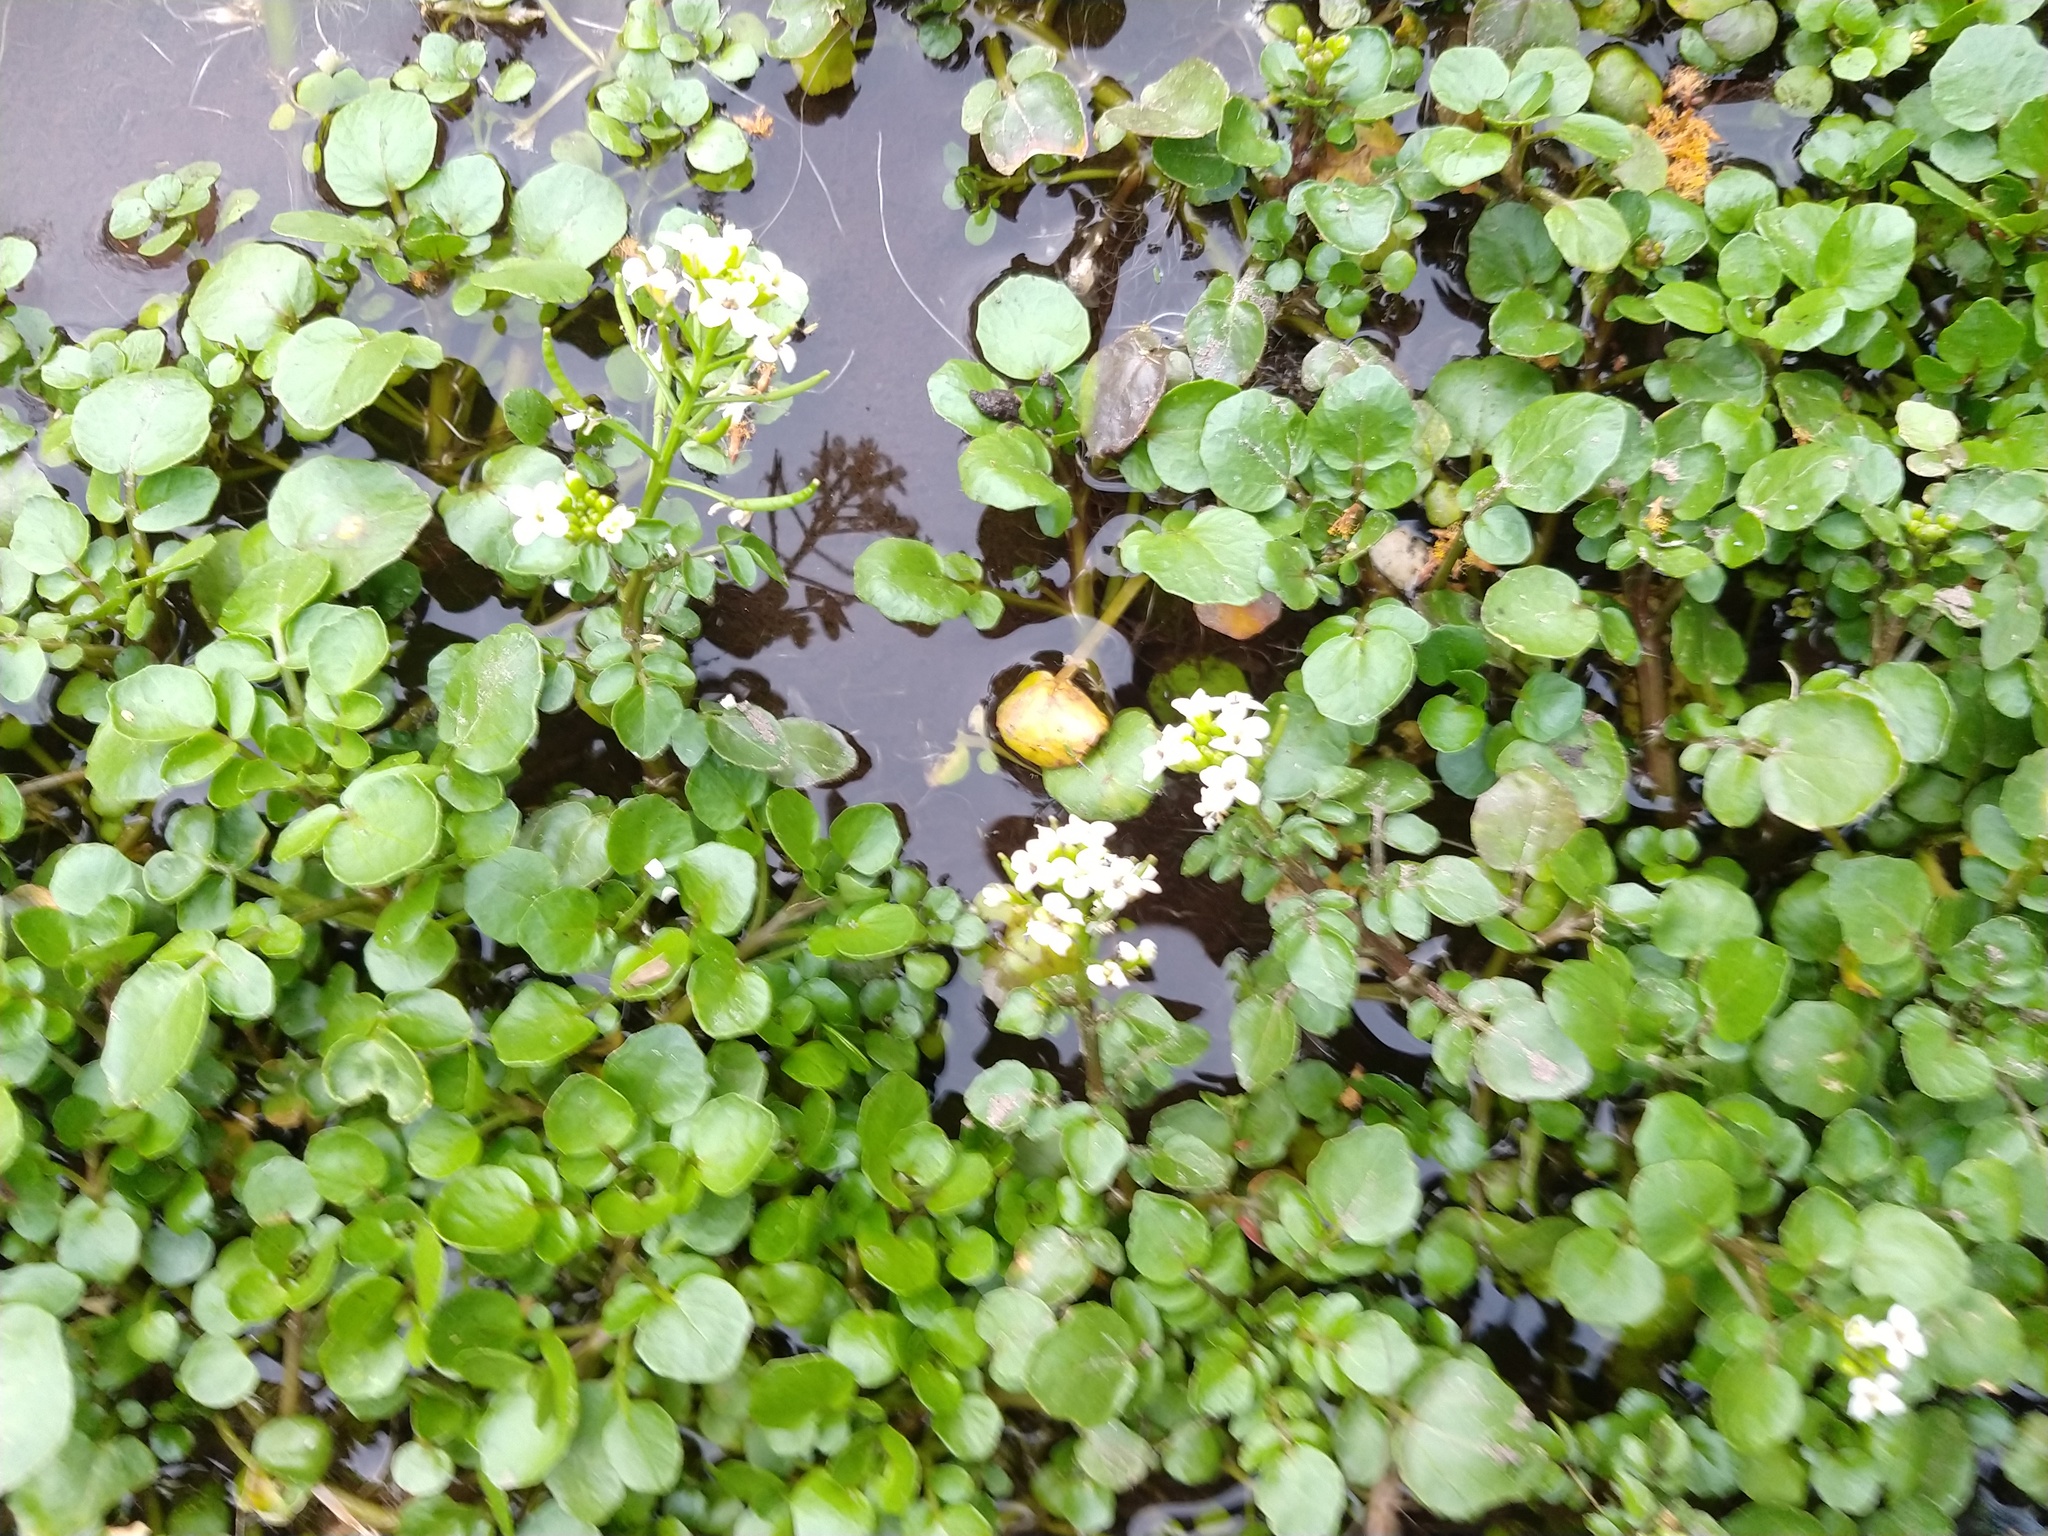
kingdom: Plantae
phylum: Tracheophyta
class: Magnoliopsida
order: Brassicales
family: Brassicaceae
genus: Nasturtium
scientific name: Nasturtium officinale
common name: Watercress
